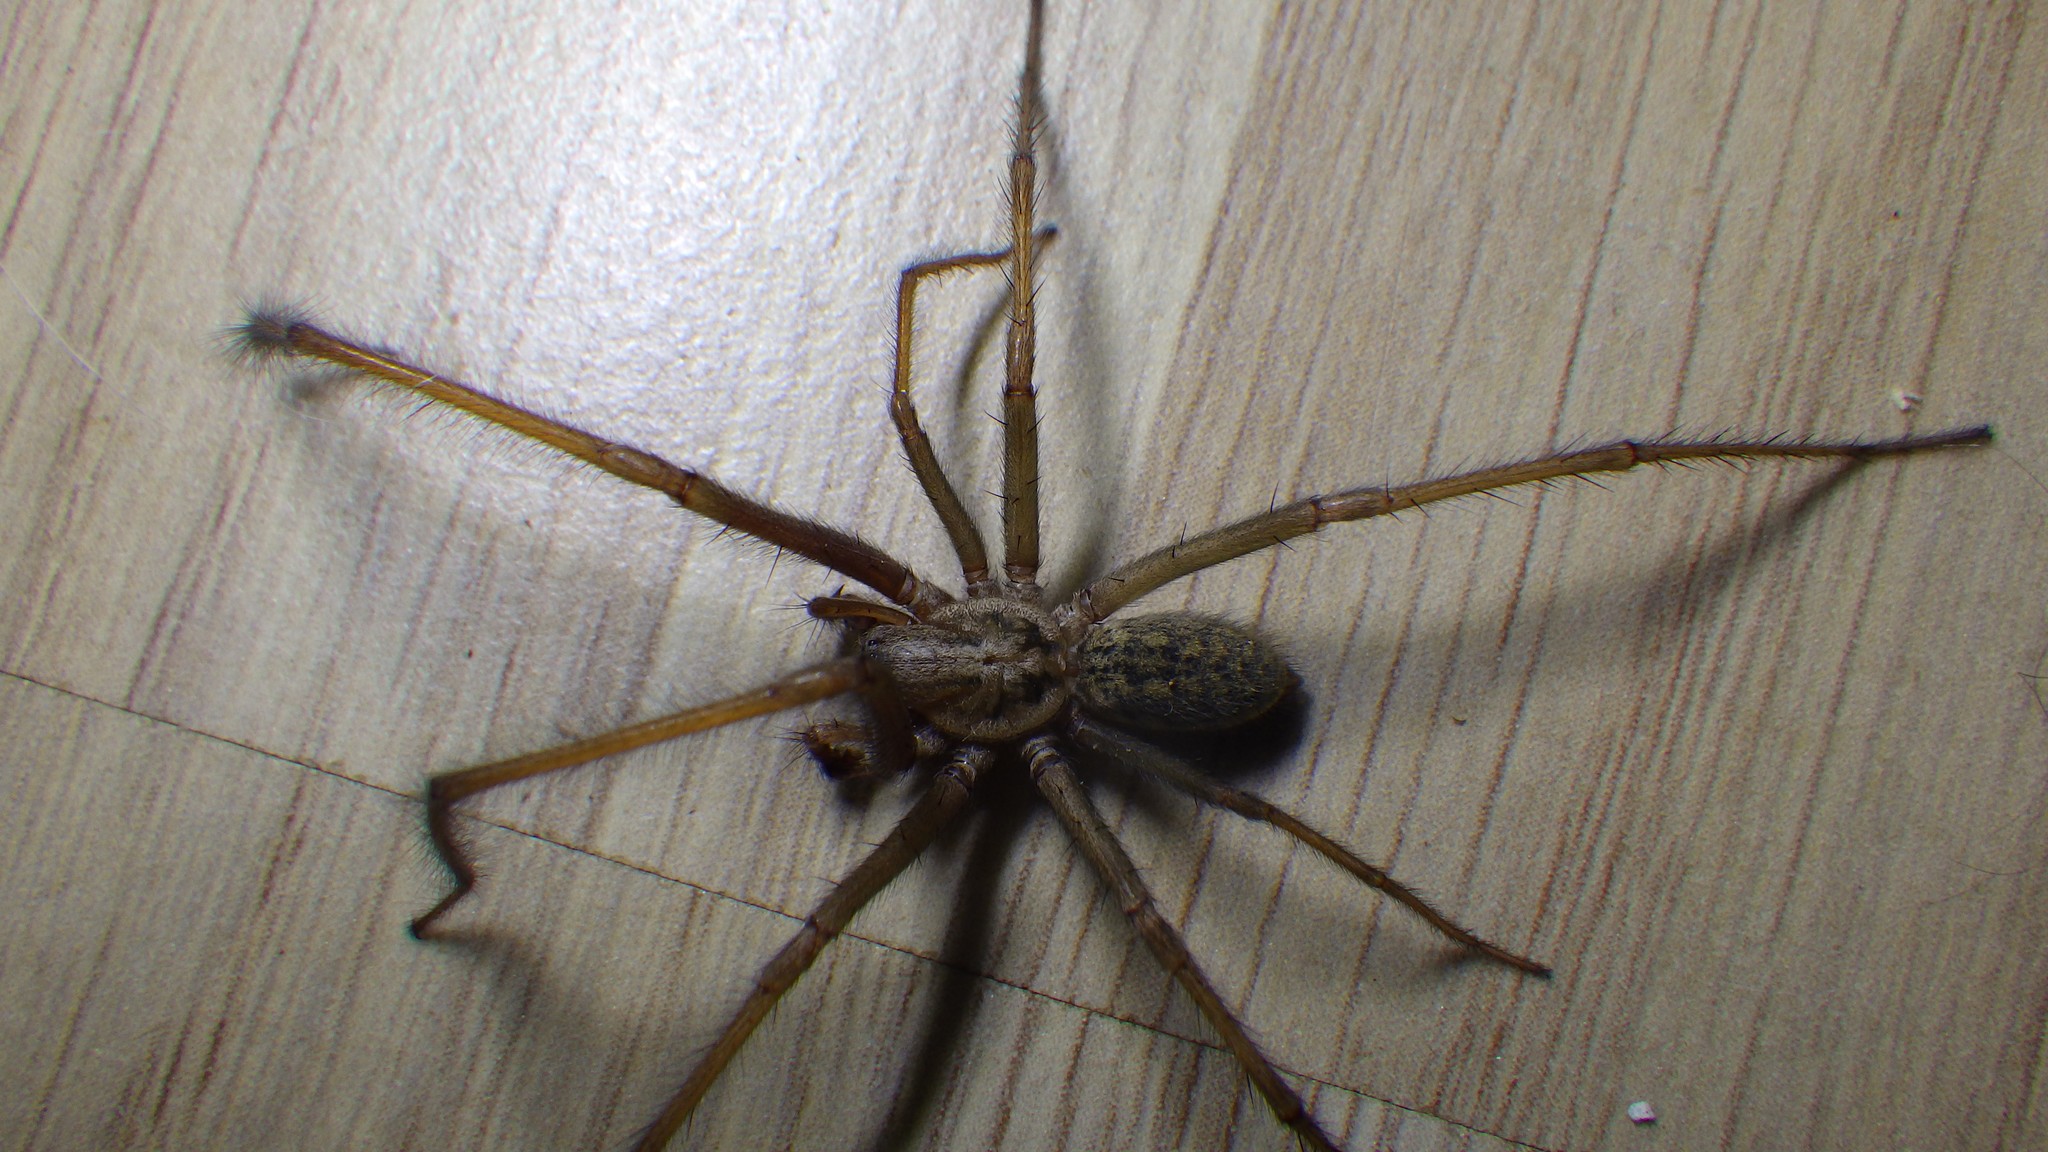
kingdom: Animalia
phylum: Arthropoda
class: Arachnida
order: Araneae
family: Agelenidae
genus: Eratigena
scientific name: Eratigena atrica
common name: Giant house spider
